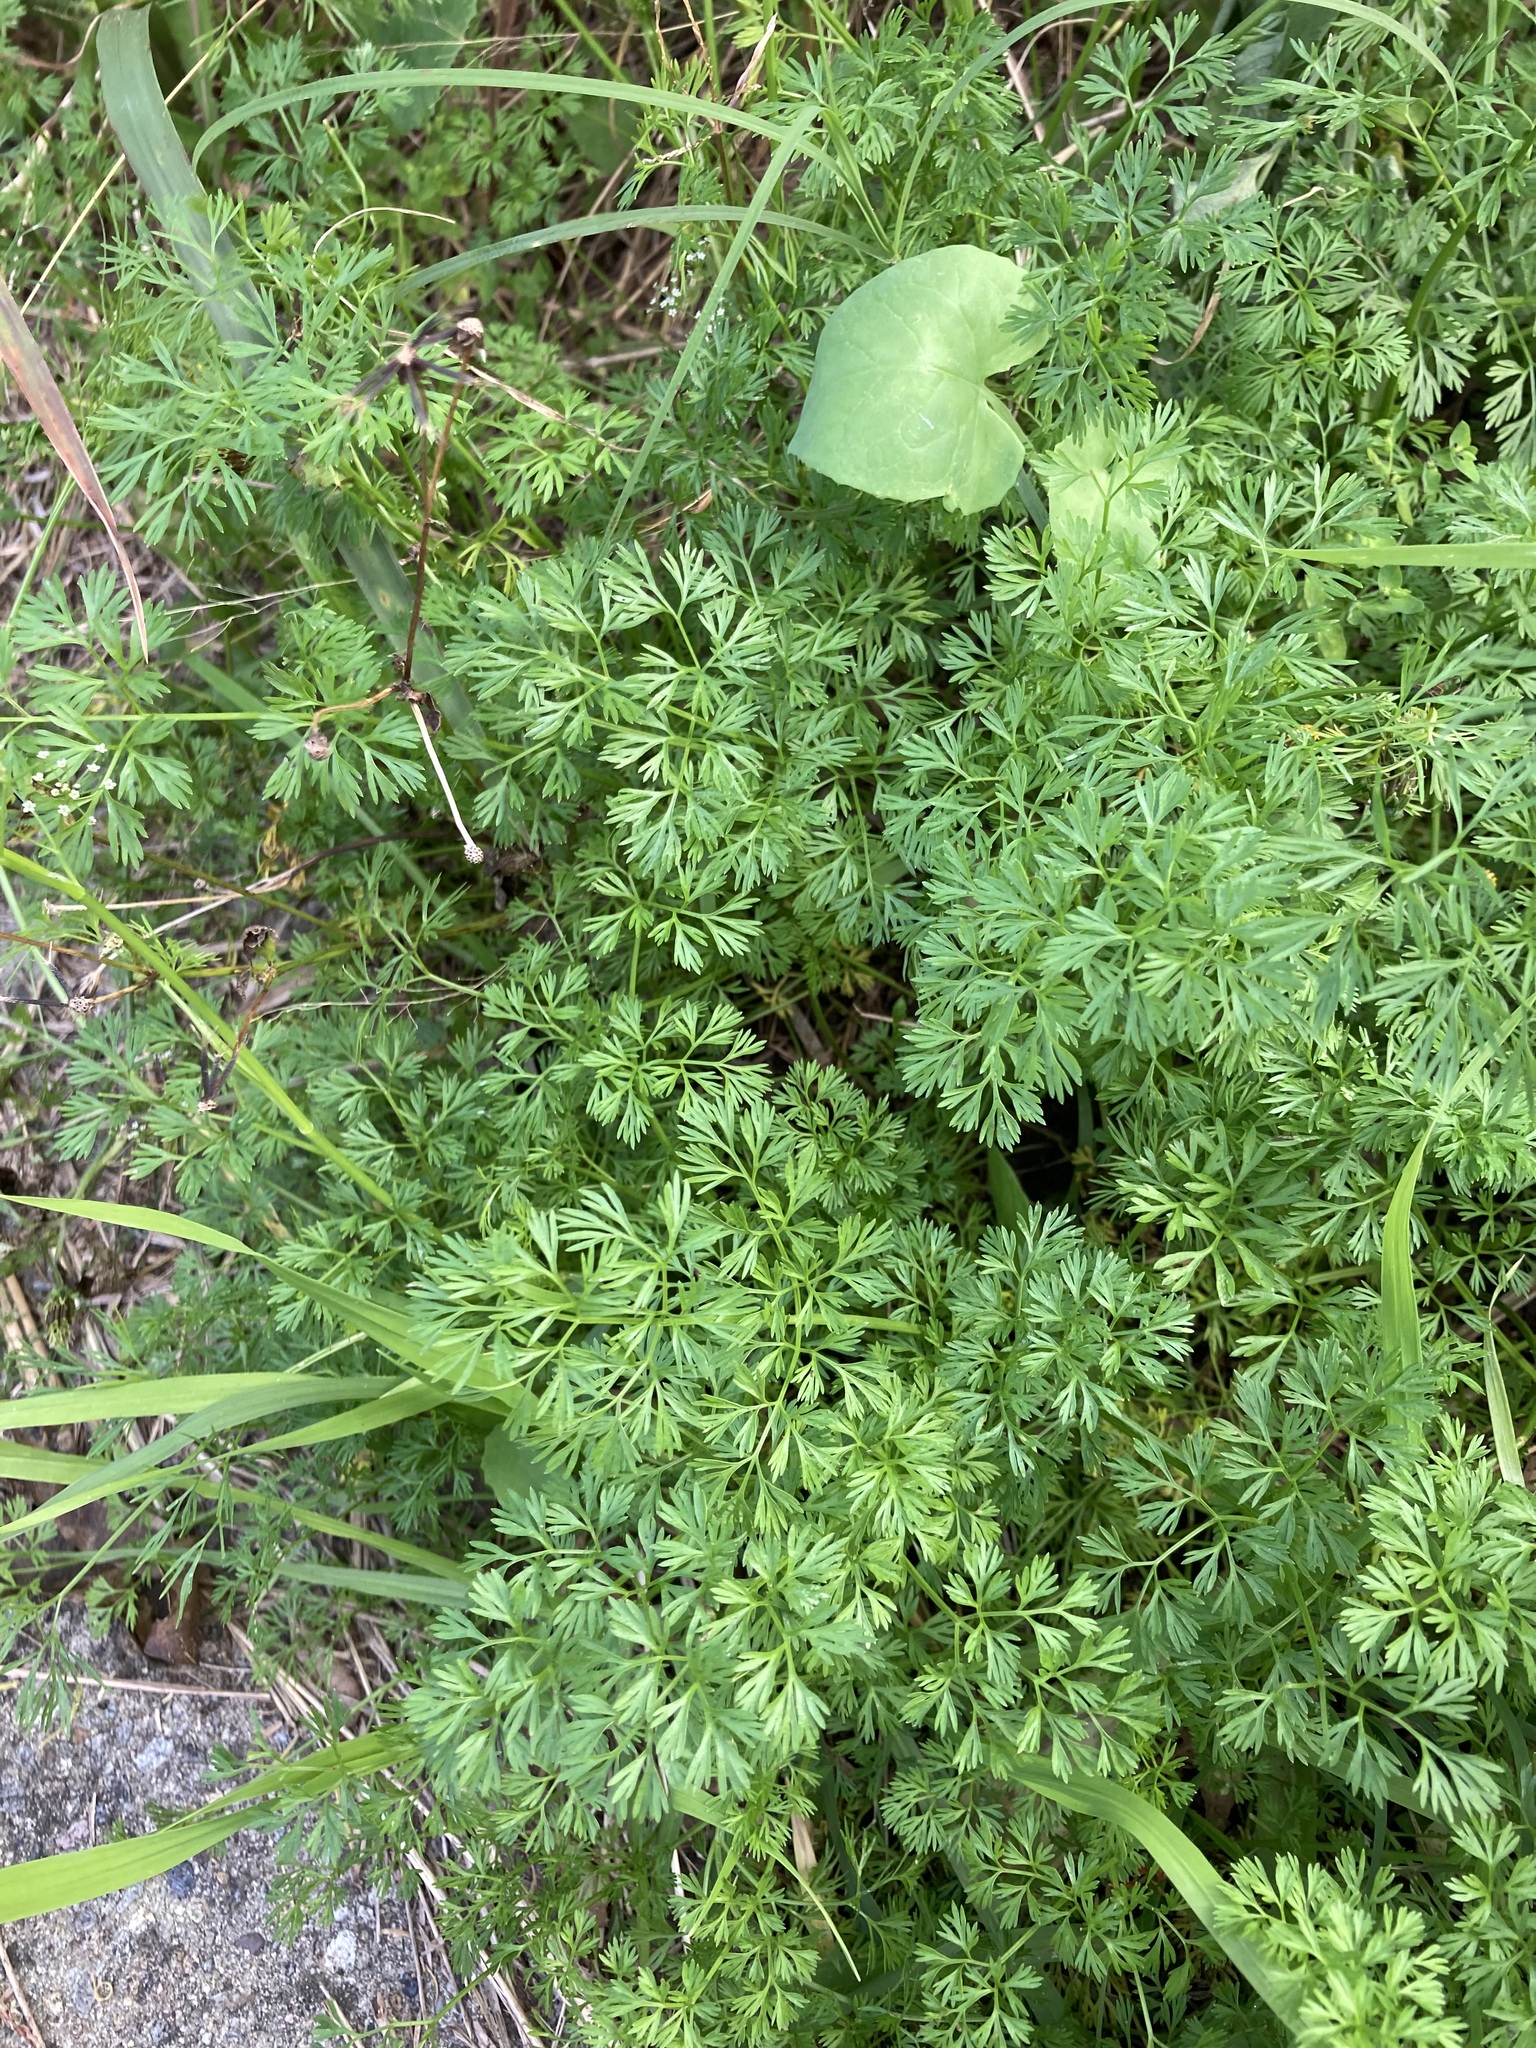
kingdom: Plantae
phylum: Tracheophyta
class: Magnoliopsida
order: Apiales
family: Apiaceae
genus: Cyclospermum
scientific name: Cyclospermum leptophyllum
